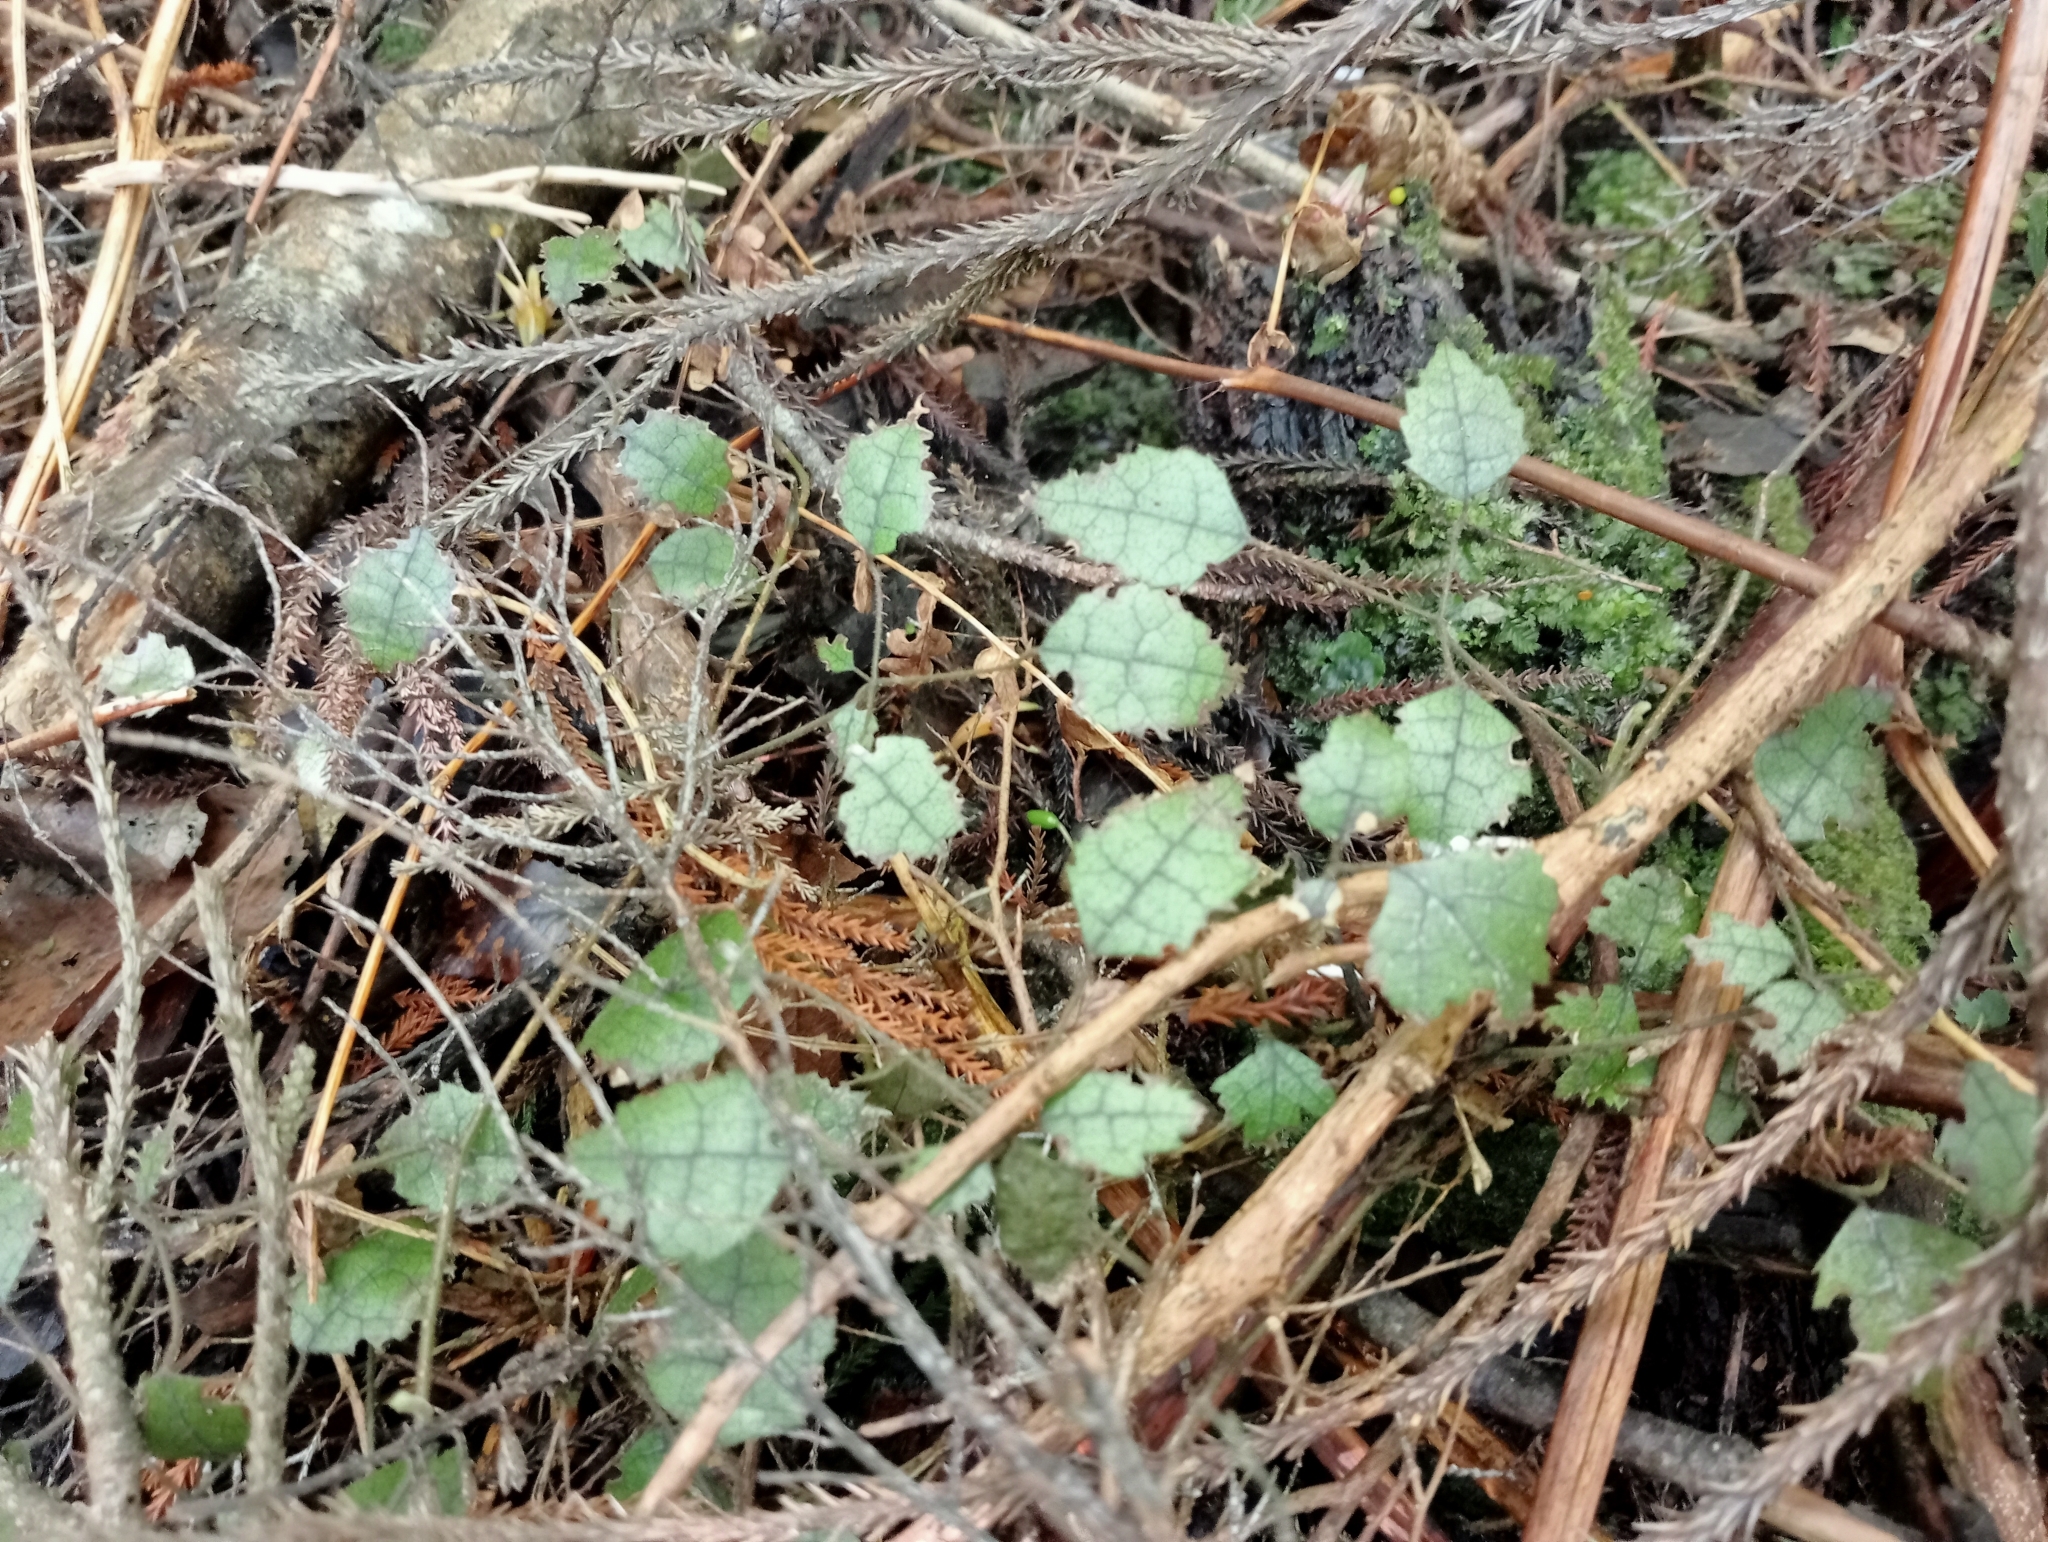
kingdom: Plantae
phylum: Tracheophyta
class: Magnoliopsida
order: Rosales
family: Rosaceae
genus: Rubus
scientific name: Rubus australis
